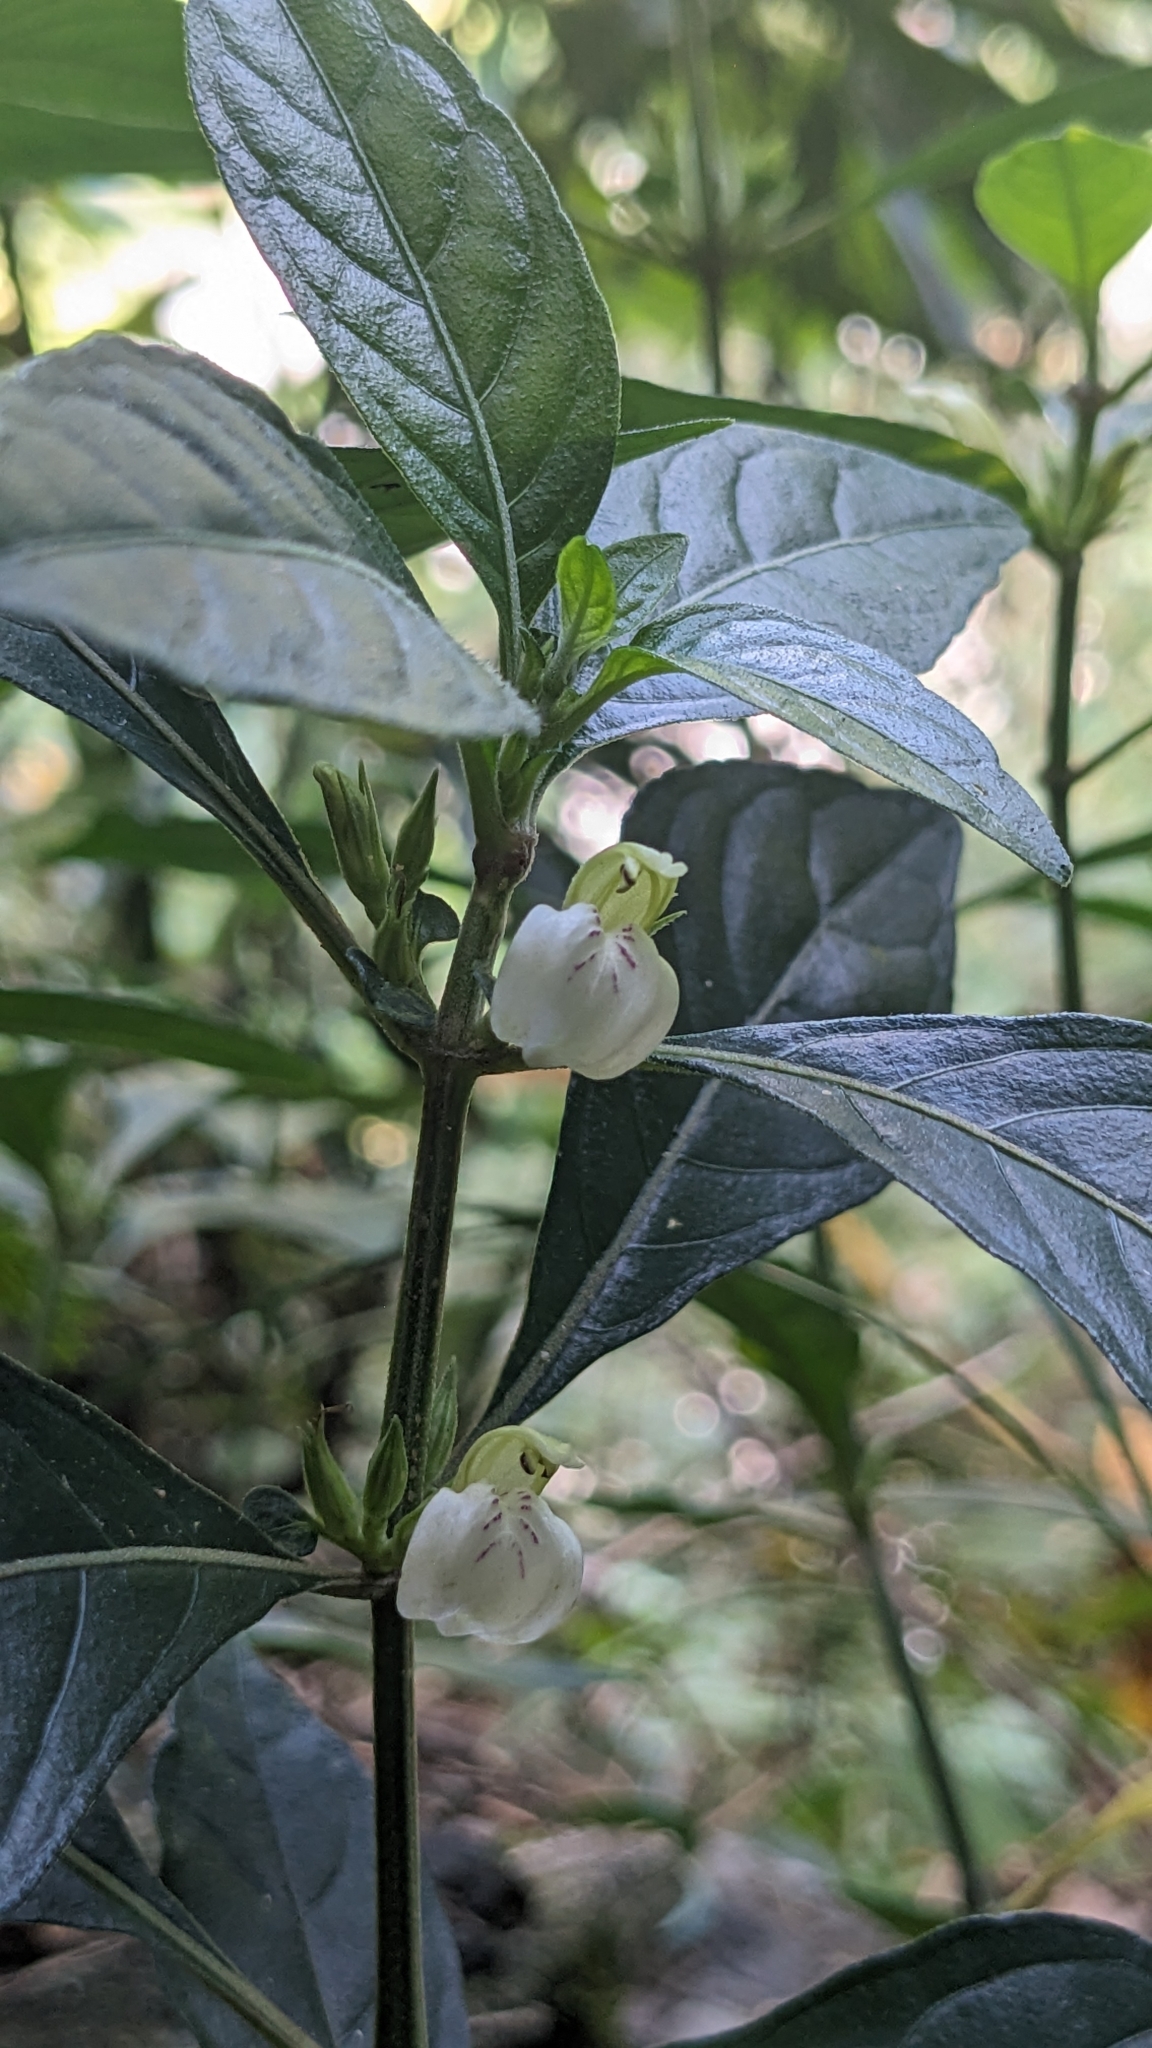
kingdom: Plantae
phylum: Tracheophyta
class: Magnoliopsida
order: Lamiales
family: Acanthaceae
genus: Justicia
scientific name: Justicia quadrifaria
